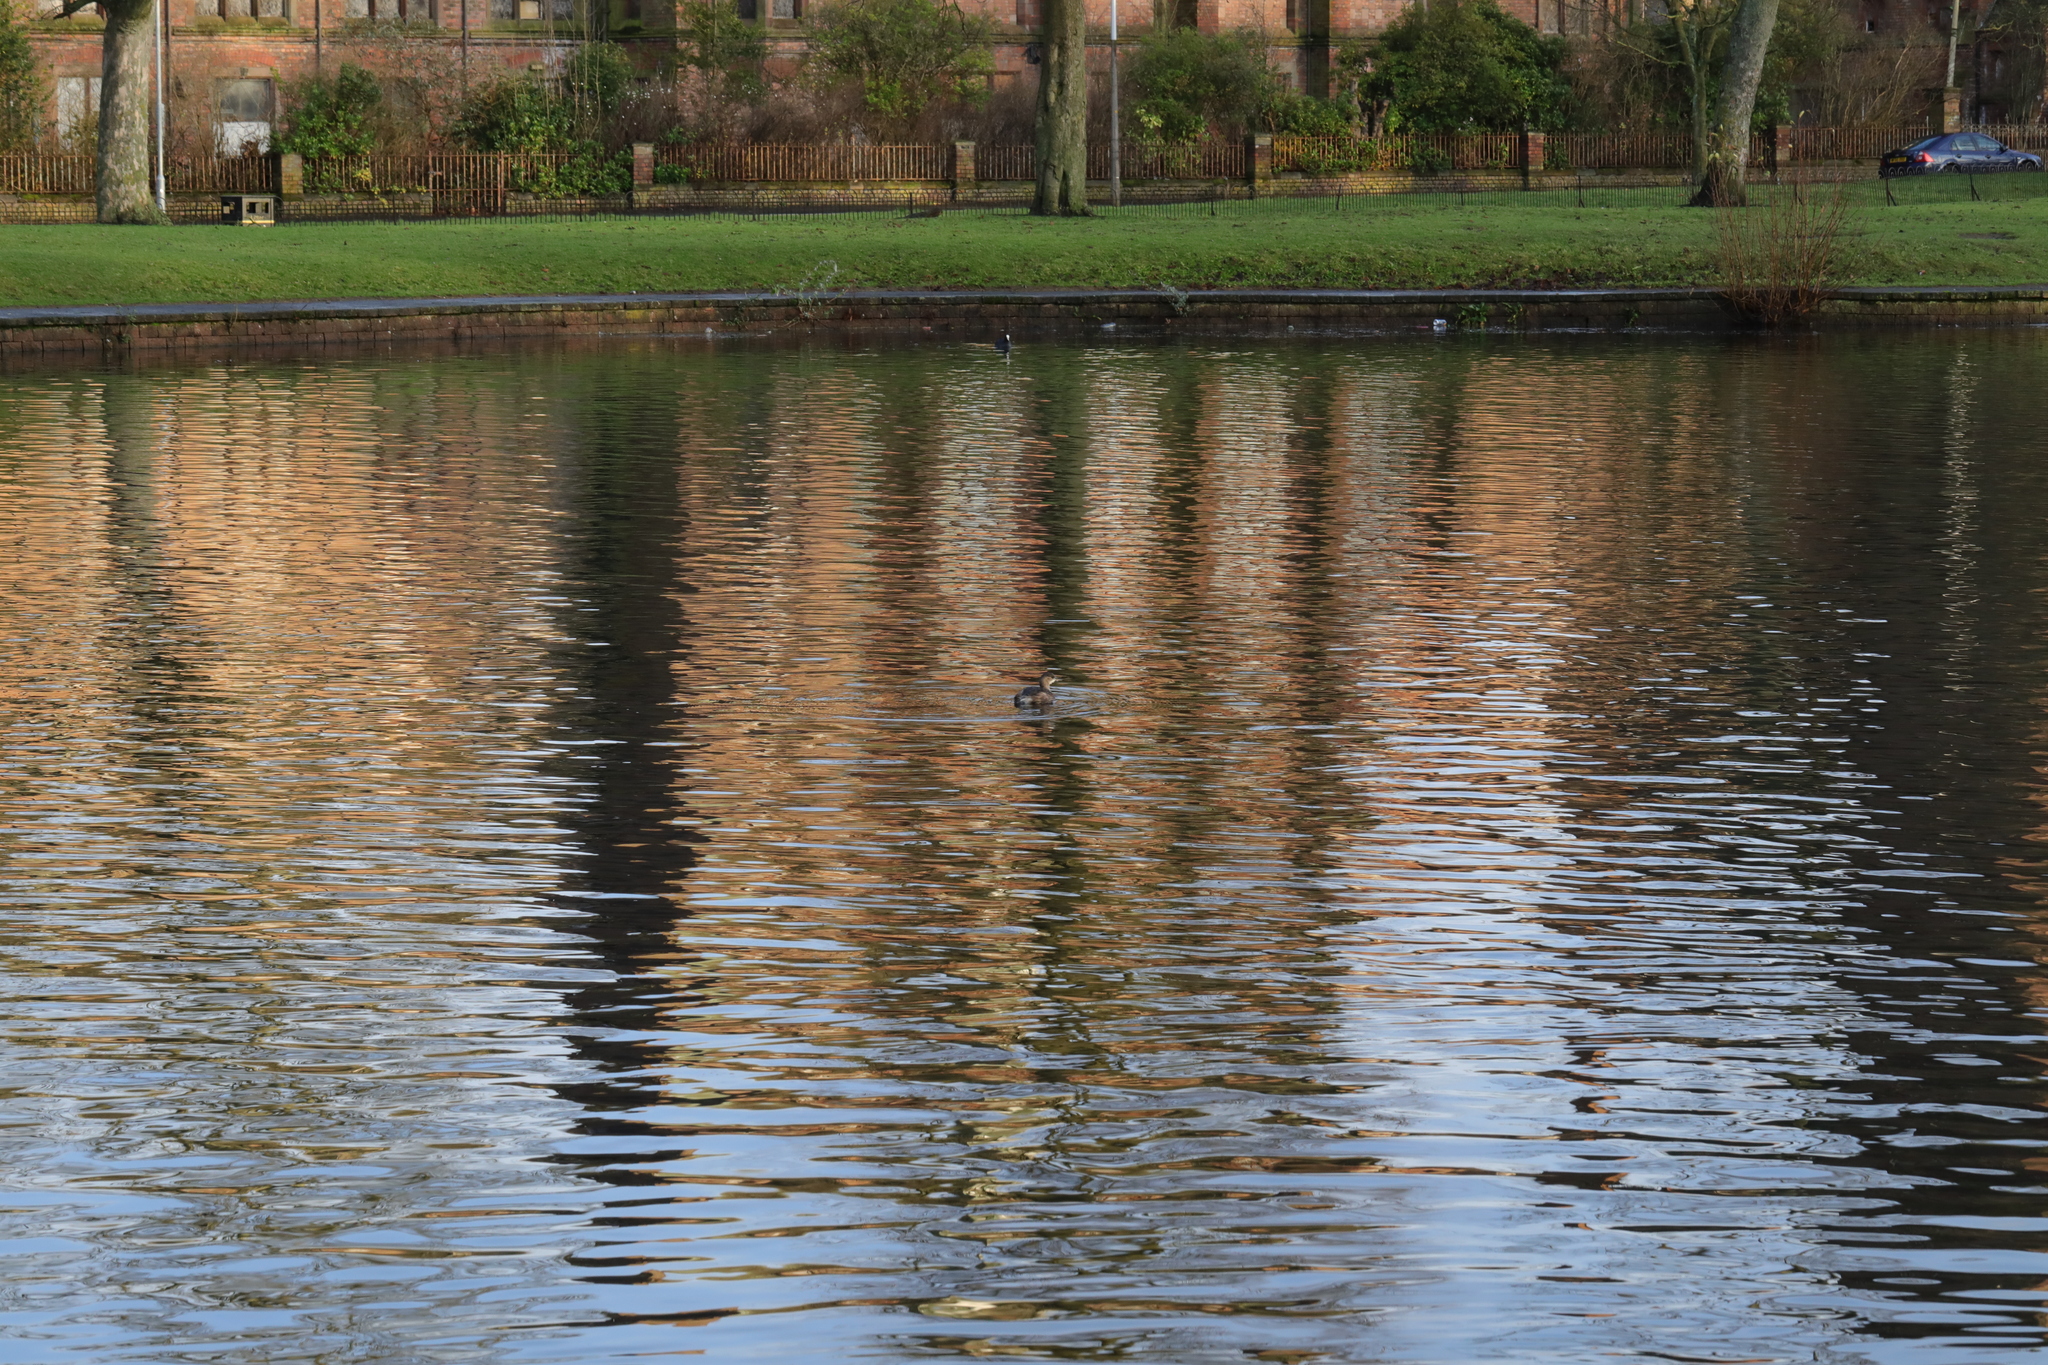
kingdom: Animalia
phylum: Chordata
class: Aves
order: Podicipediformes
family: Podicipedidae
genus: Tachybaptus
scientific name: Tachybaptus ruficollis
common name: Little grebe
